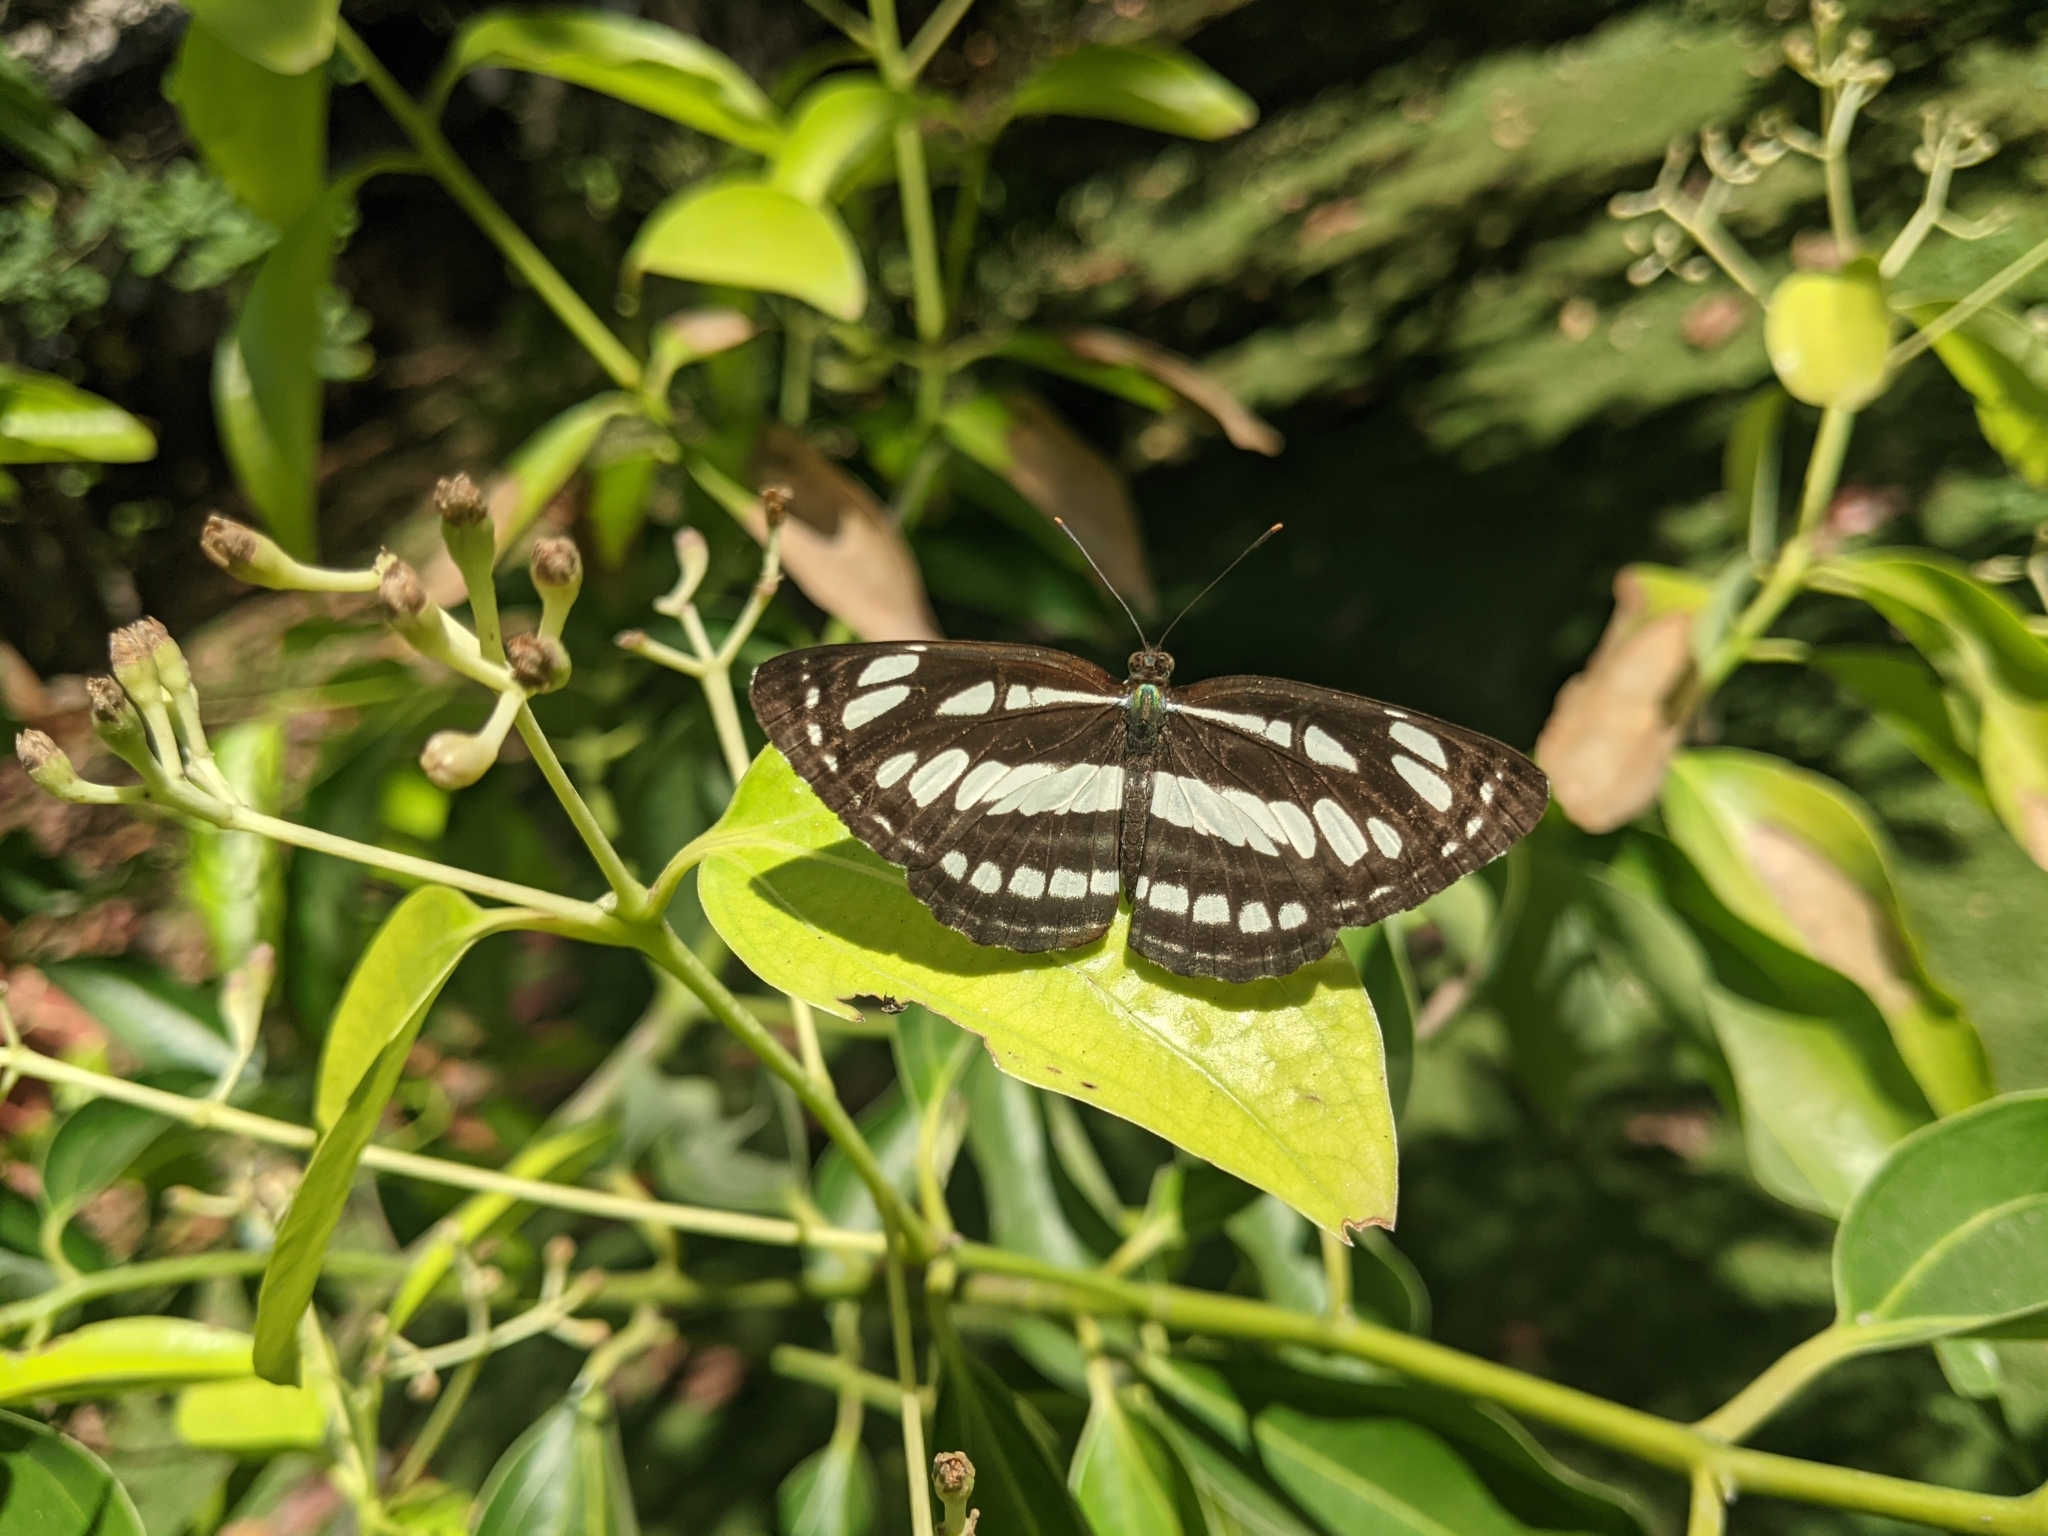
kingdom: Animalia
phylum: Arthropoda
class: Insecta
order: Lepidoptera
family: Nymphalidae
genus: Neptis
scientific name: Neptis hylas
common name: Common sailer
